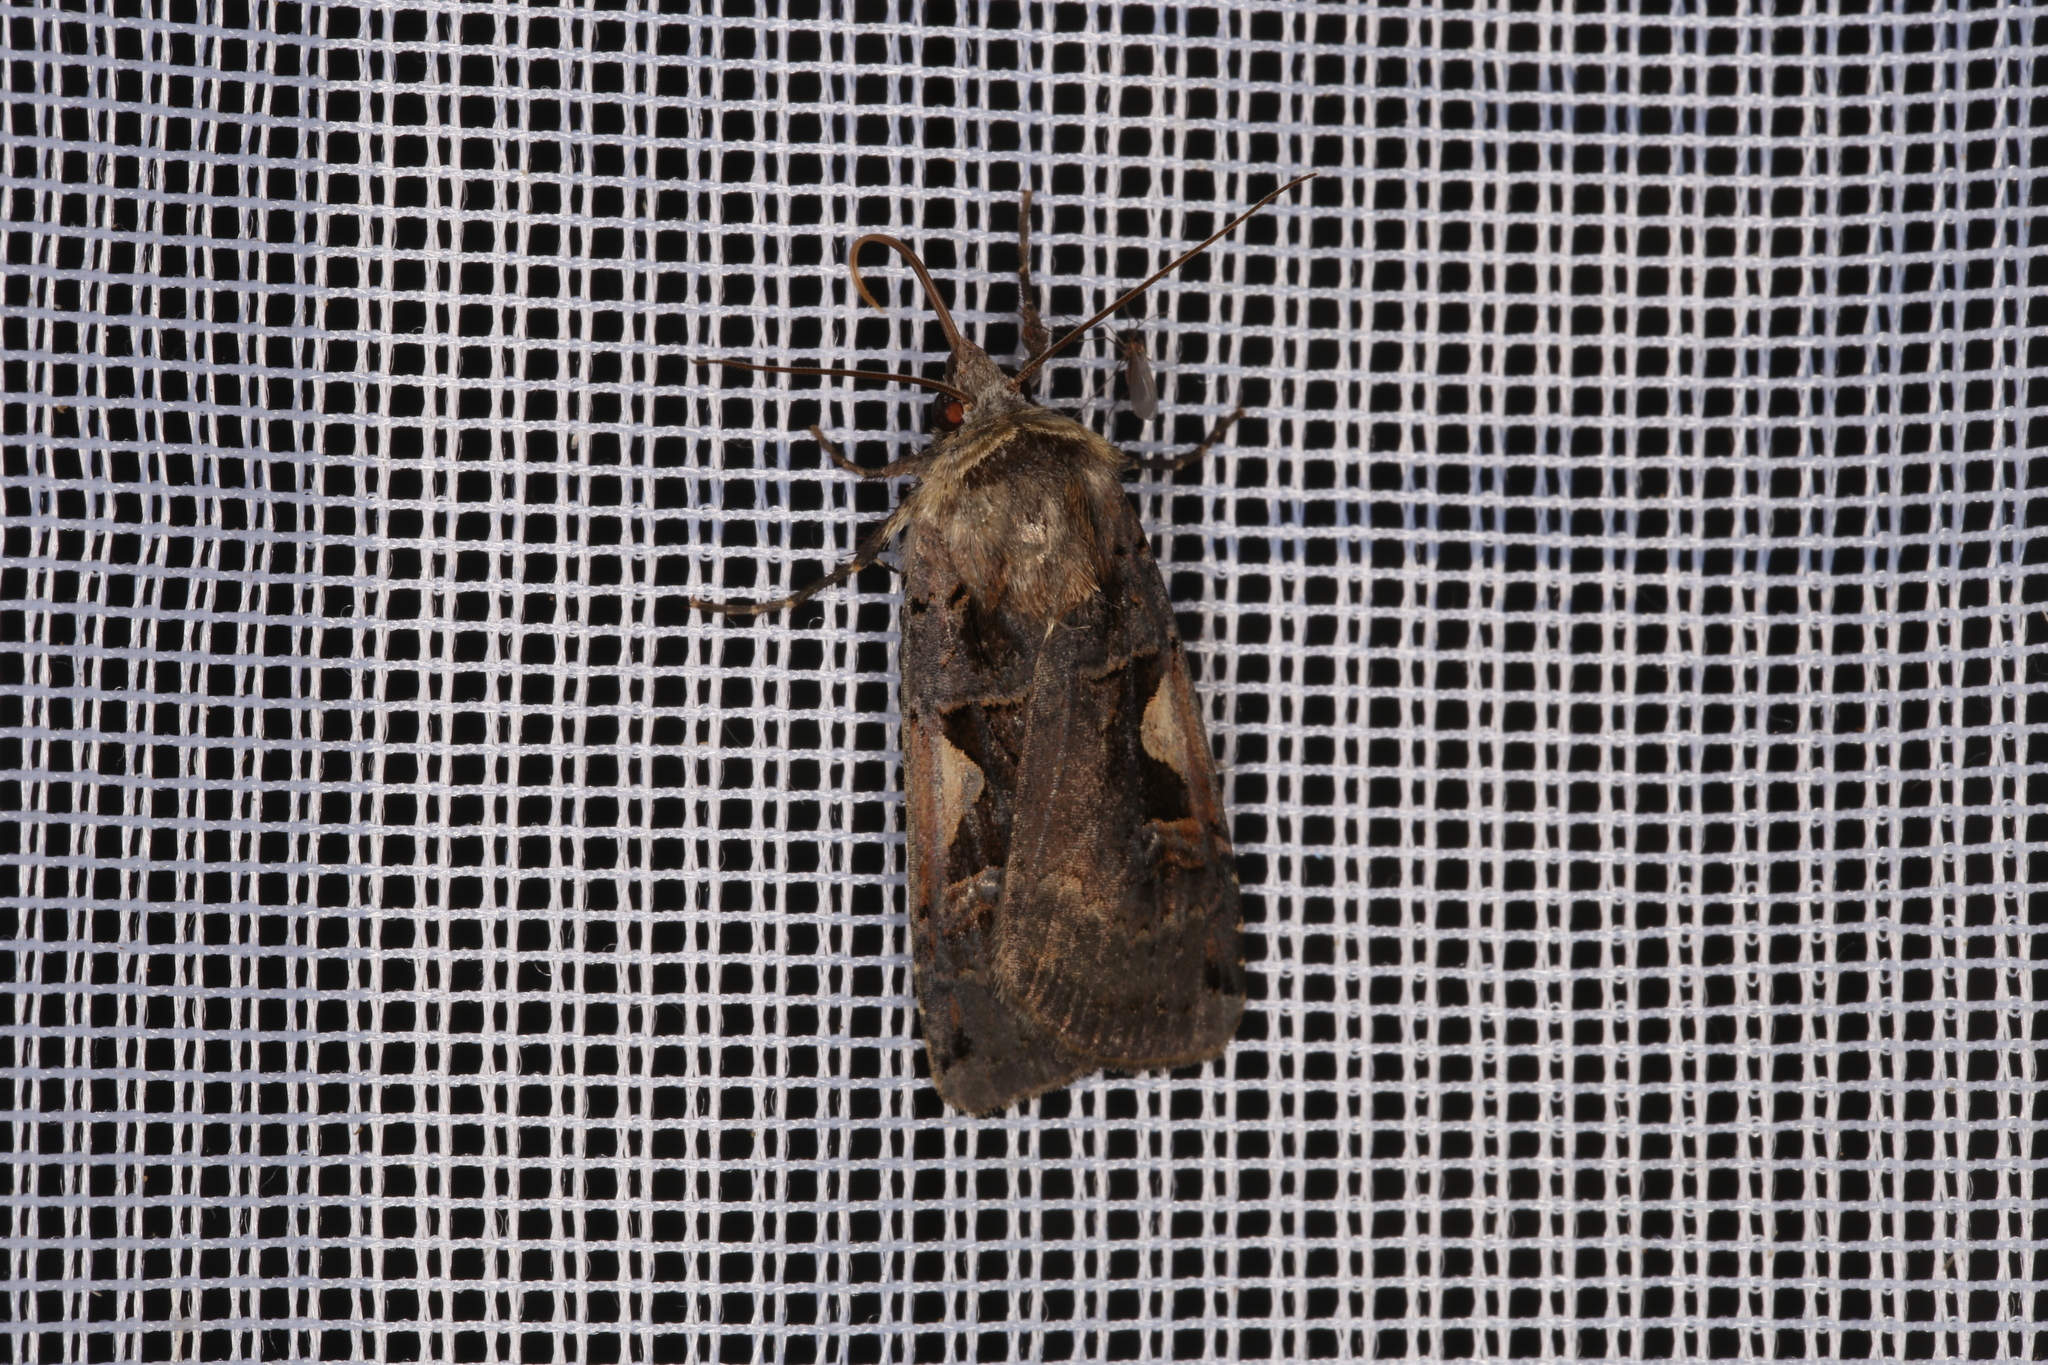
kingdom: Animalia
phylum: Arthropoda
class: Insecta
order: Lepidoptera
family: Noctuidae
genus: Xestia
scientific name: Xestia c-nigrum
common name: Setaceous hebrew character
